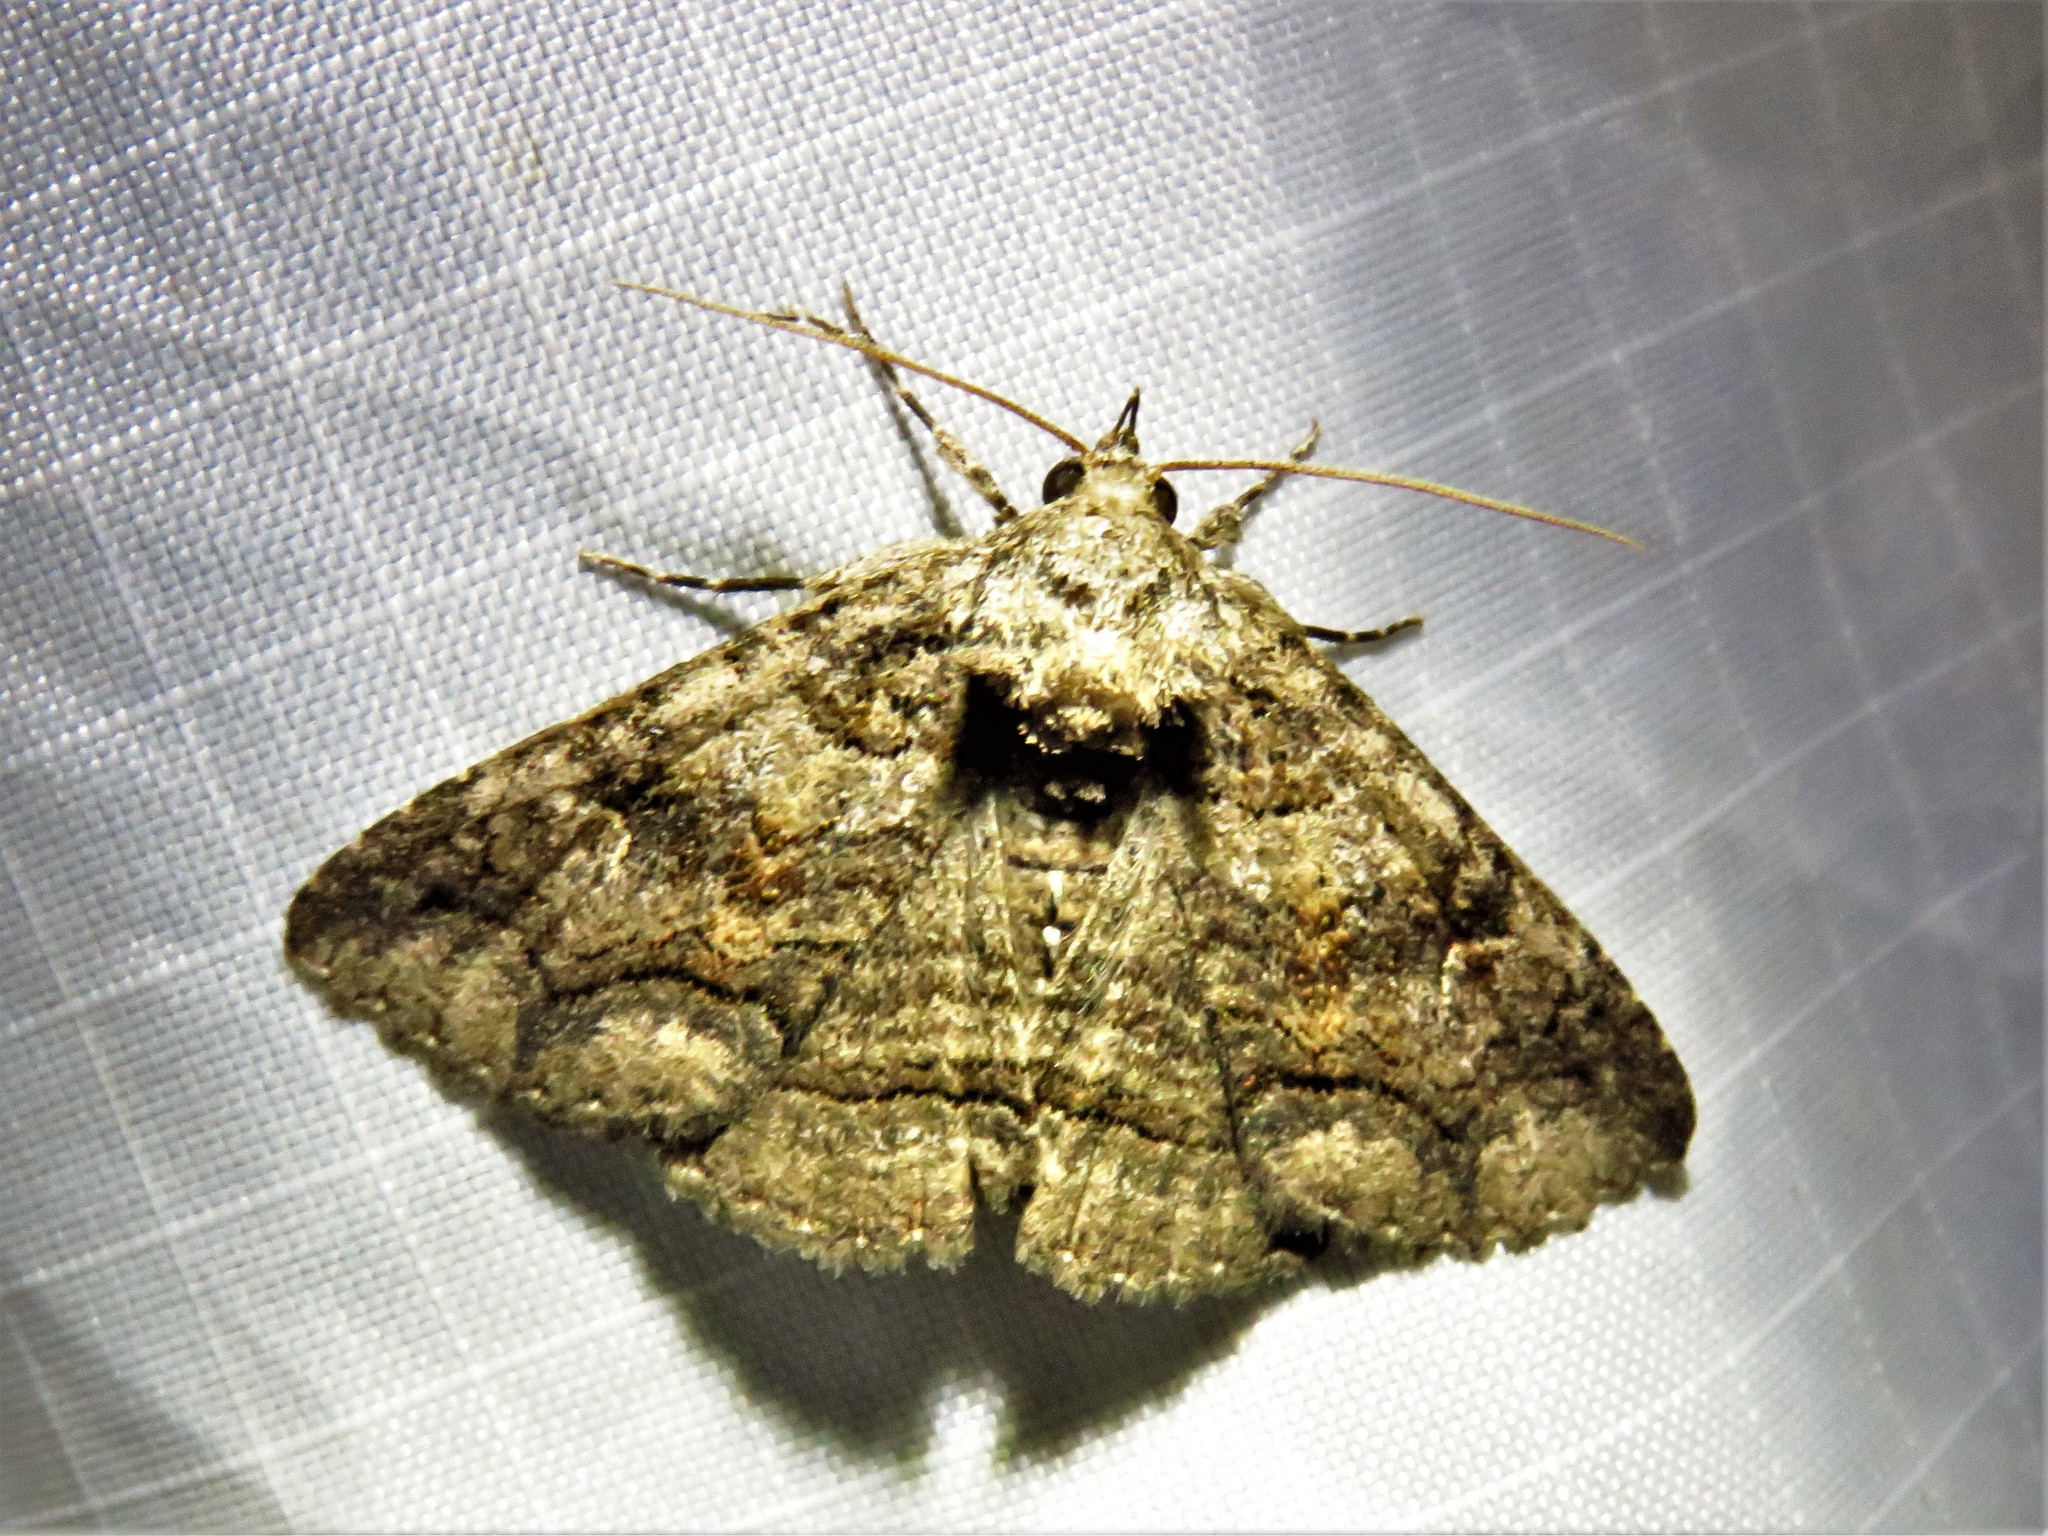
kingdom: Animalia
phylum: Arthropoda
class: Insecta
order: Lepidoptera
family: Erebidae
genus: Zale
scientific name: Zale edusina
